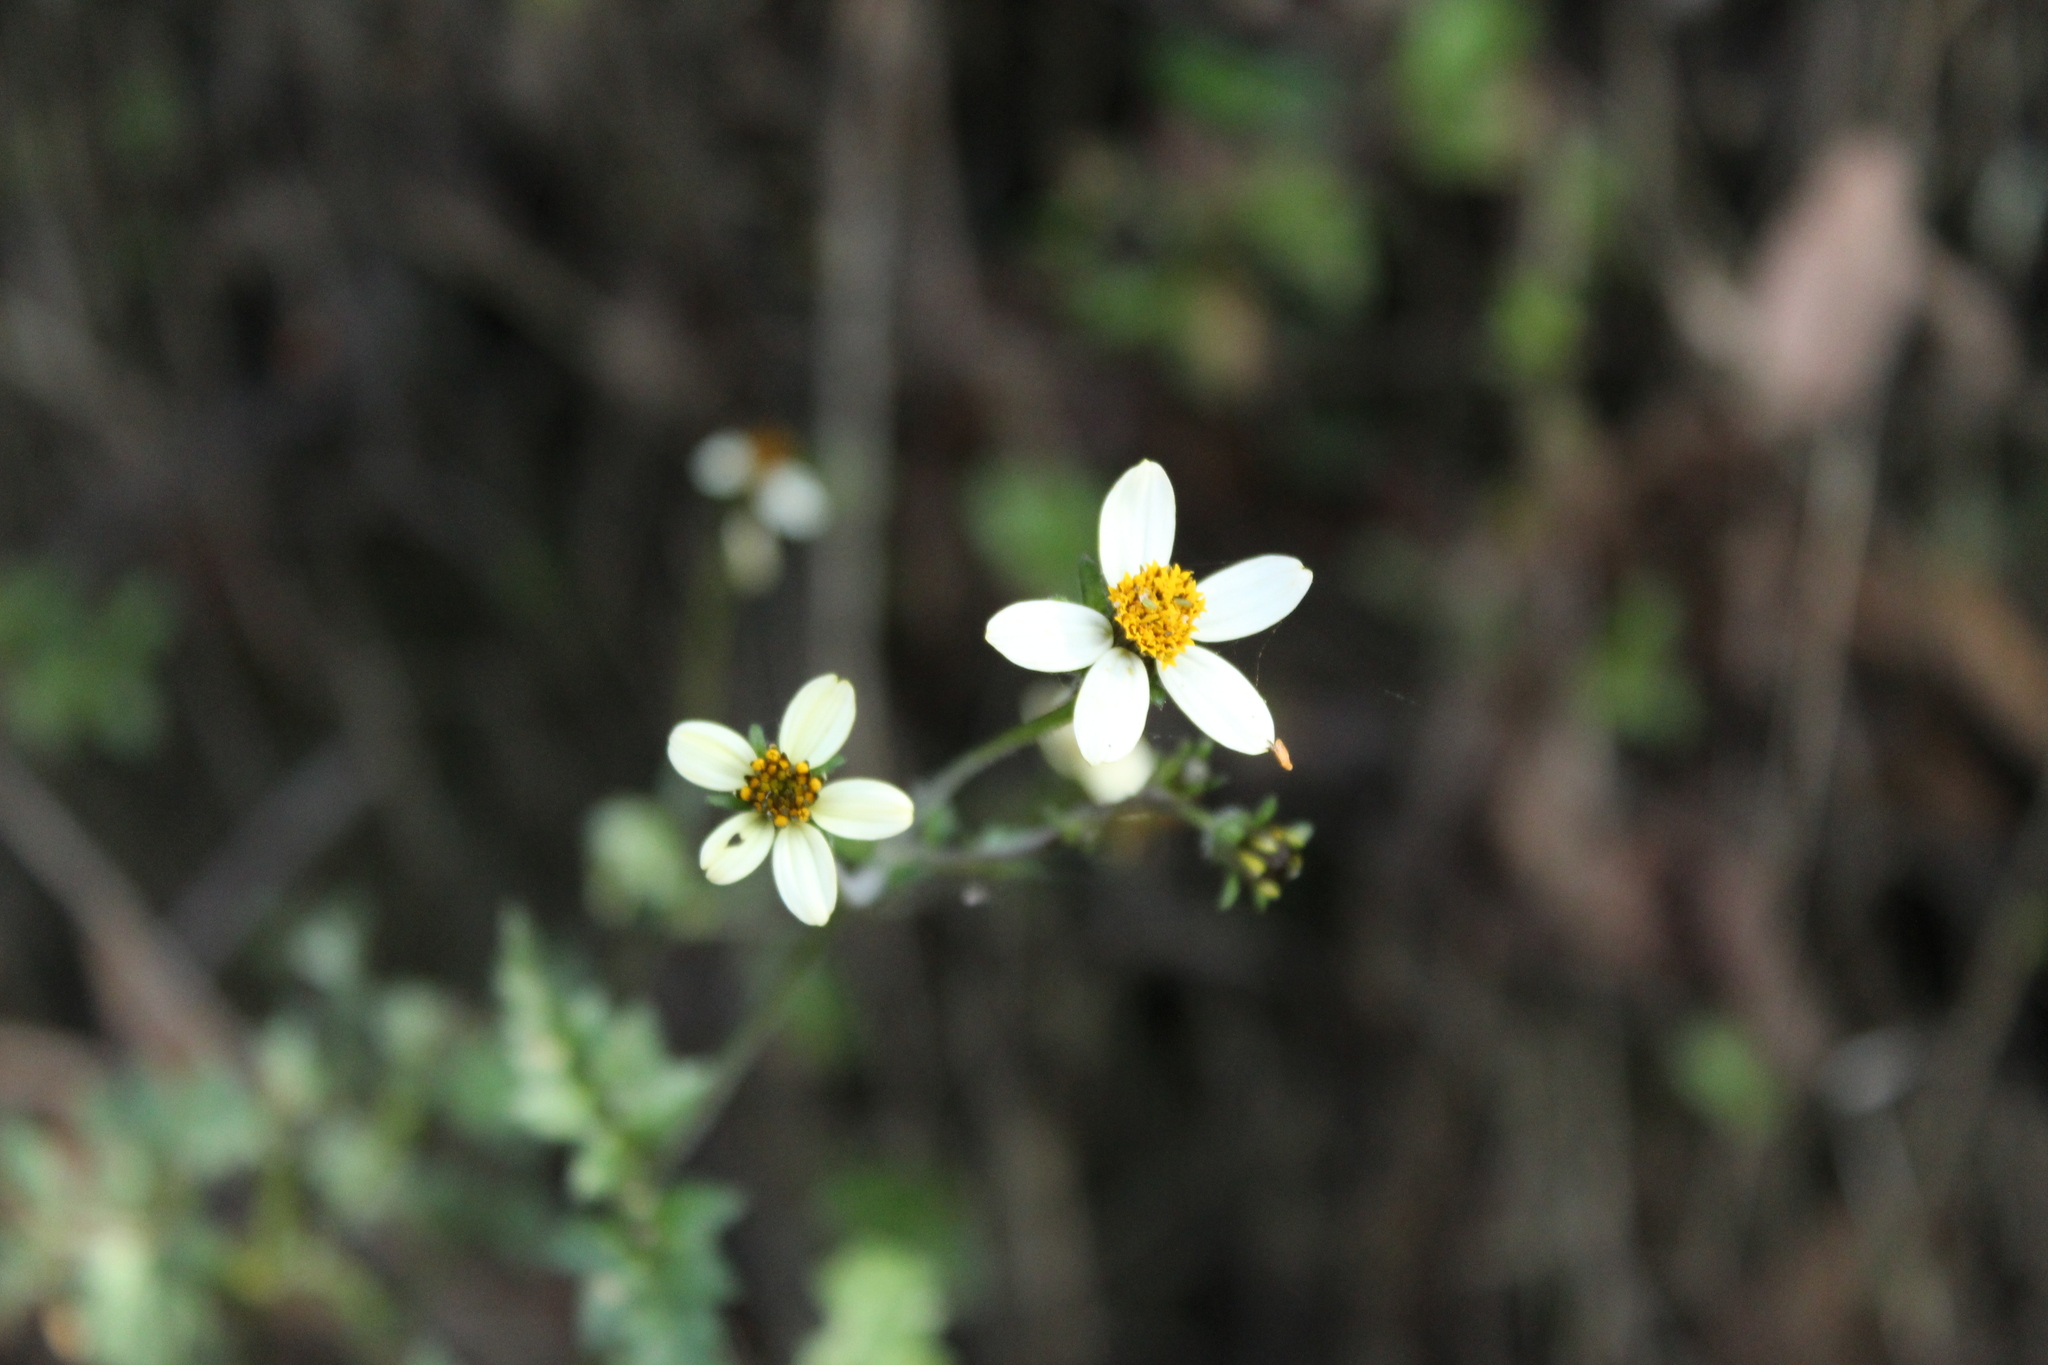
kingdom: Plantae
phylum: Tracheophyta
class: Magnoliopsida
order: Asterales
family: Asteraceae
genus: Bidens
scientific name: Bidens alba
